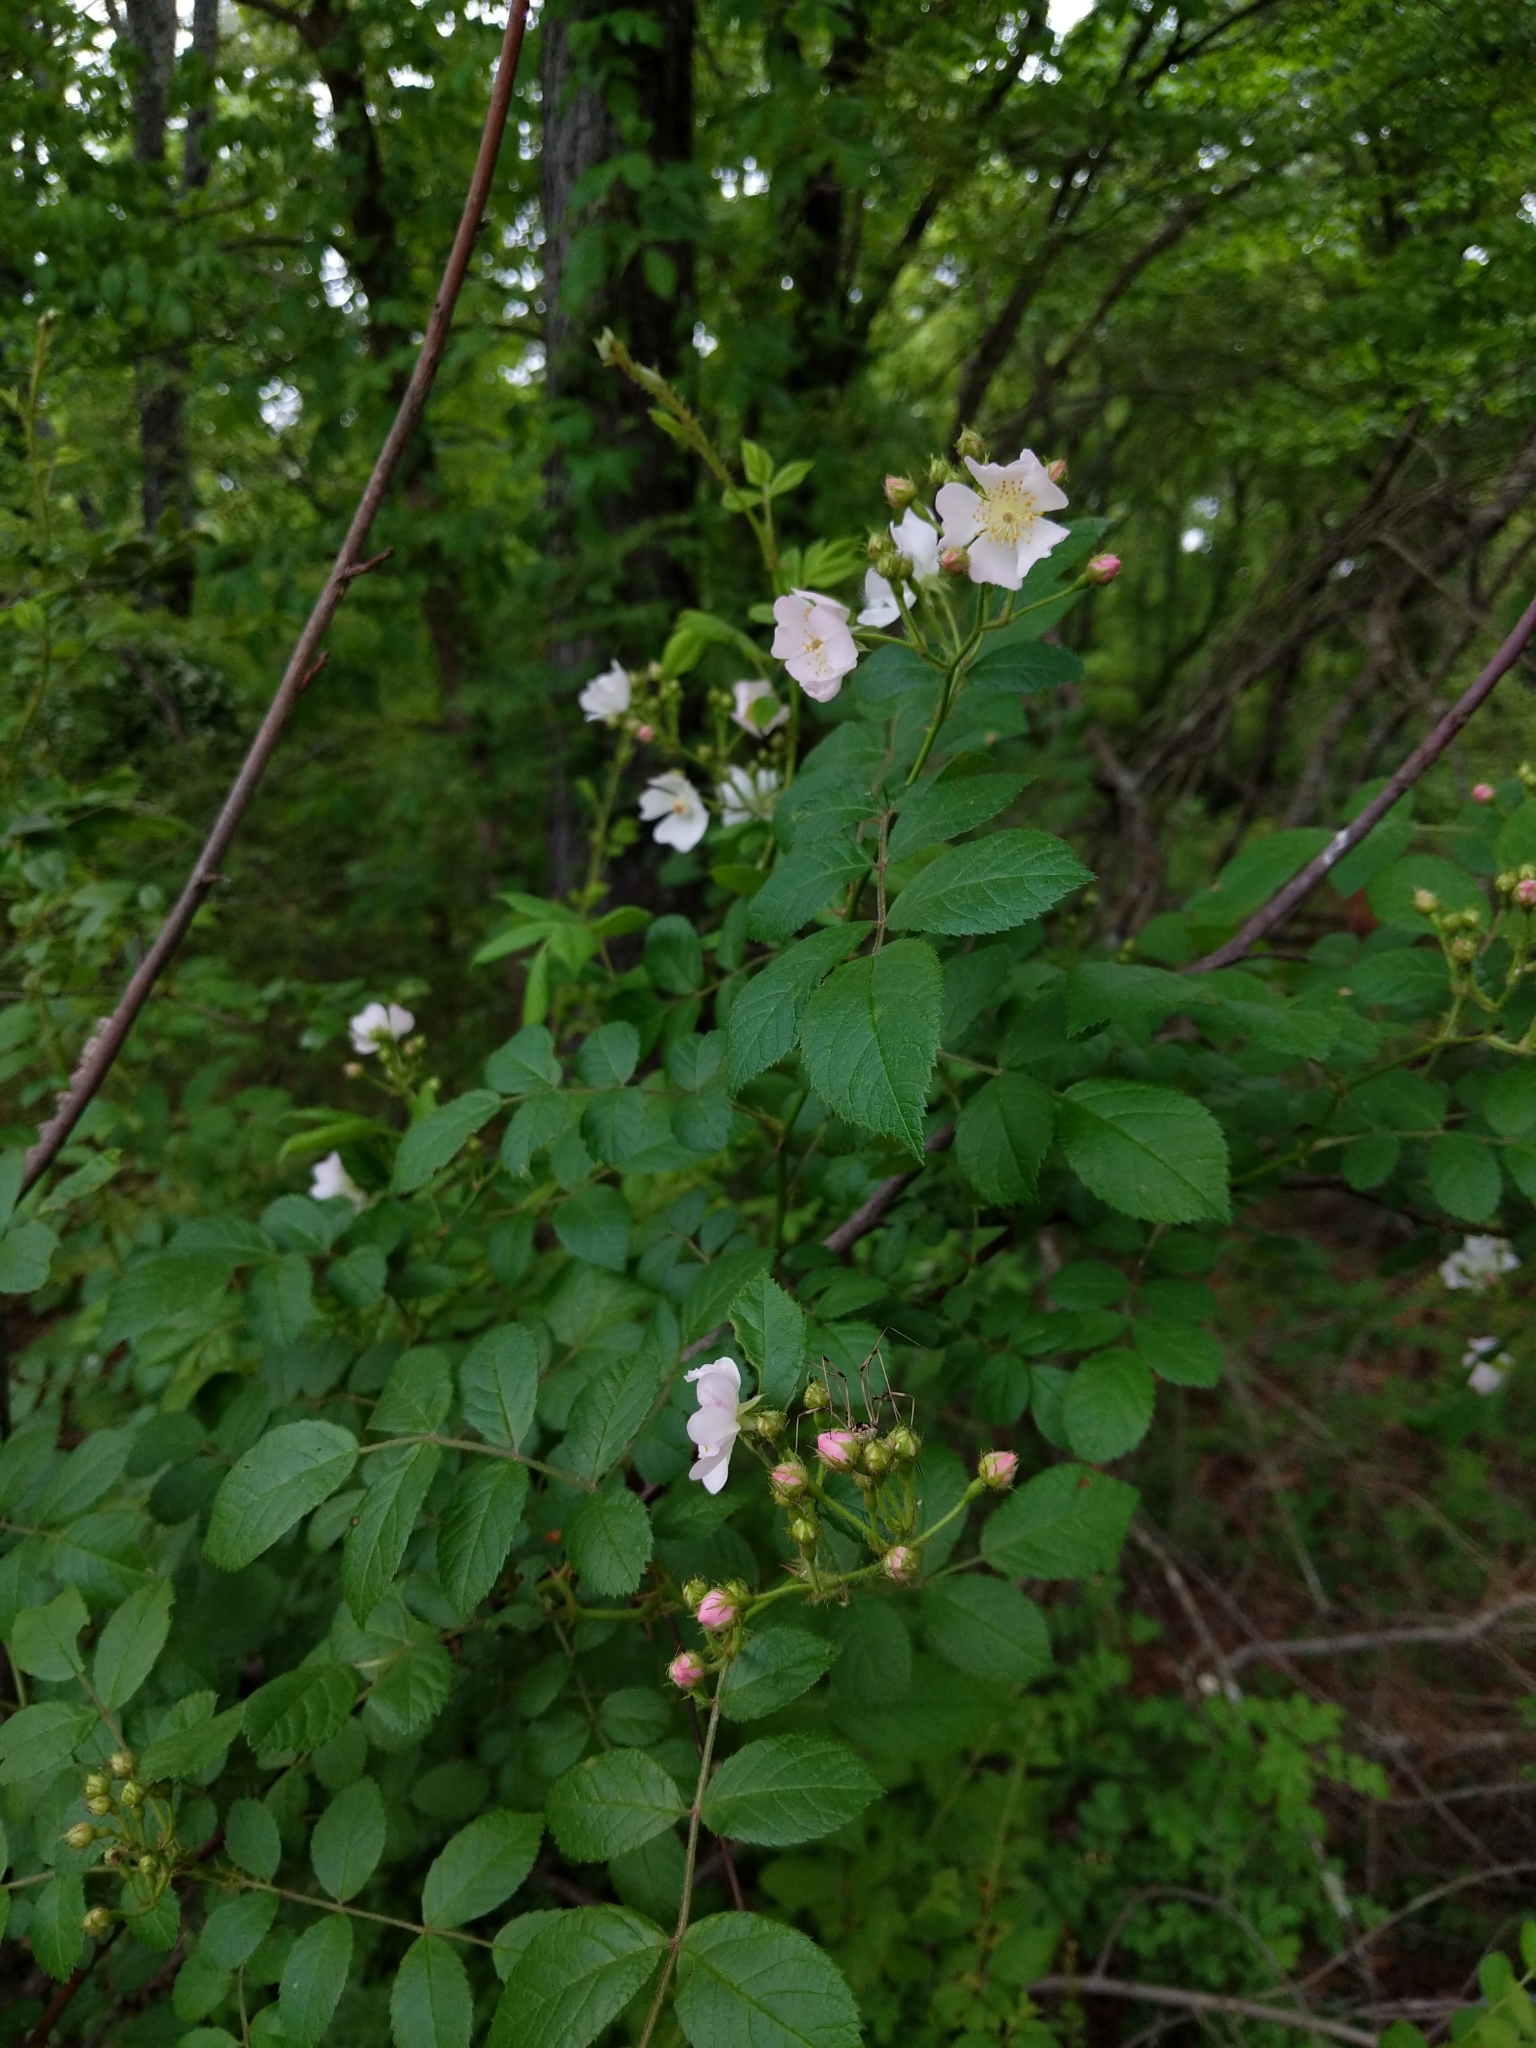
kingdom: Plantae
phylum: Tracheophyta
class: Magnoliopsida
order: Rosales
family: Rosaceae
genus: Rosa
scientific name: Rosa multiflora
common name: Multiflora rose
